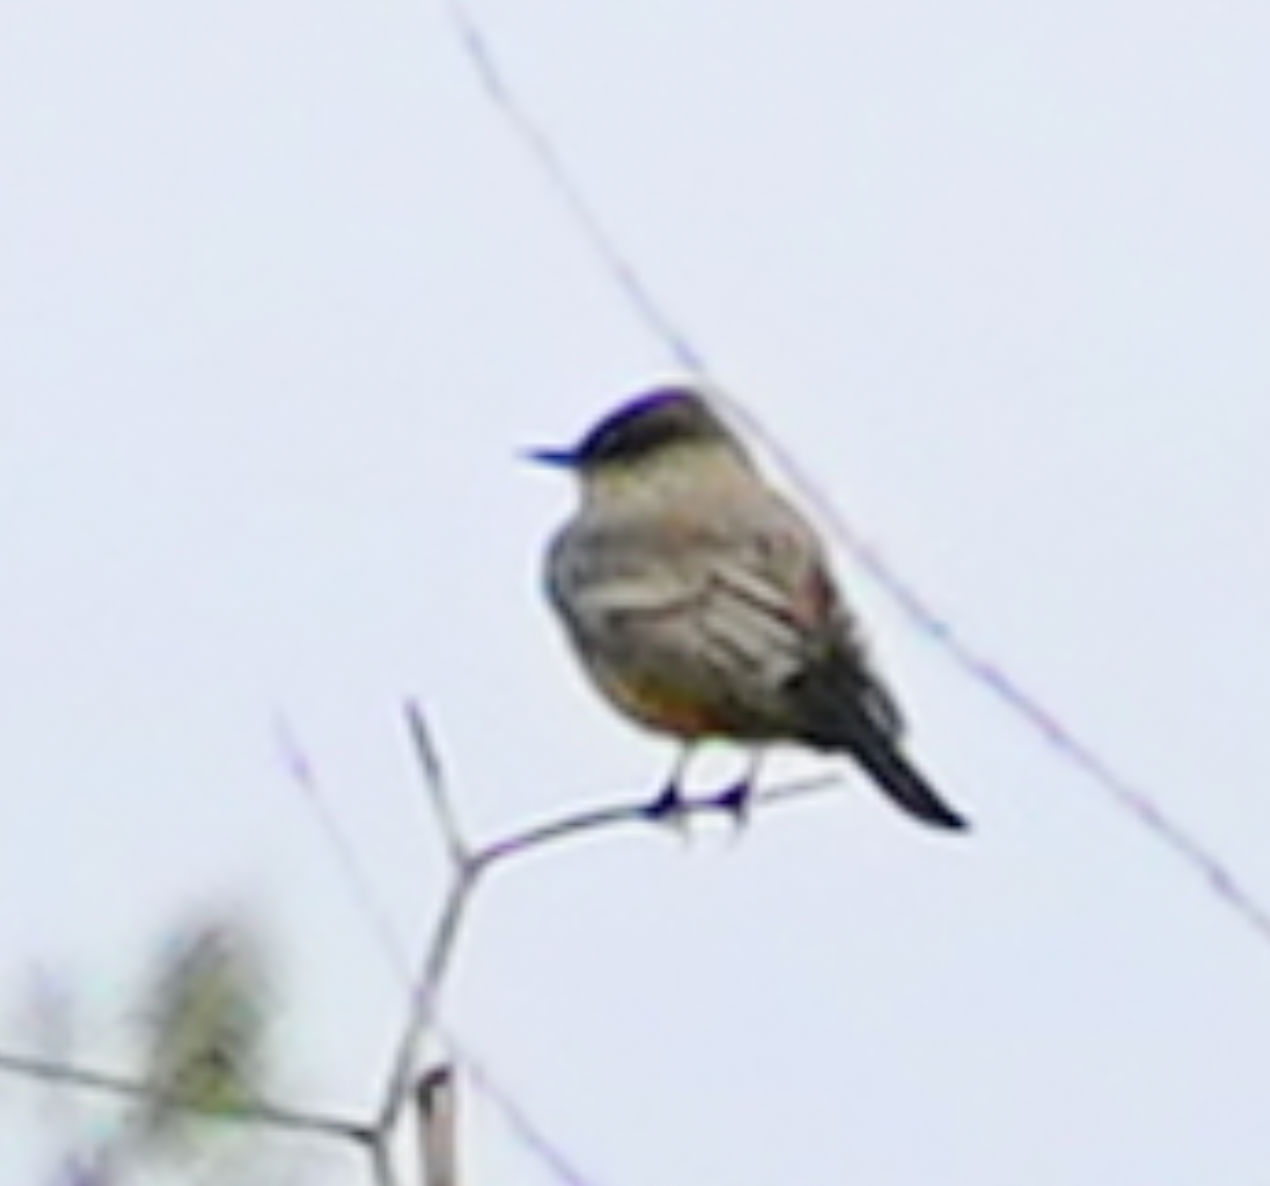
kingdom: Animalia
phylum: Chordata
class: Aves
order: Passeriformes
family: Tyrannidae
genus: Sayornis
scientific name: Sayornis saya
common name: Say's phoebe
